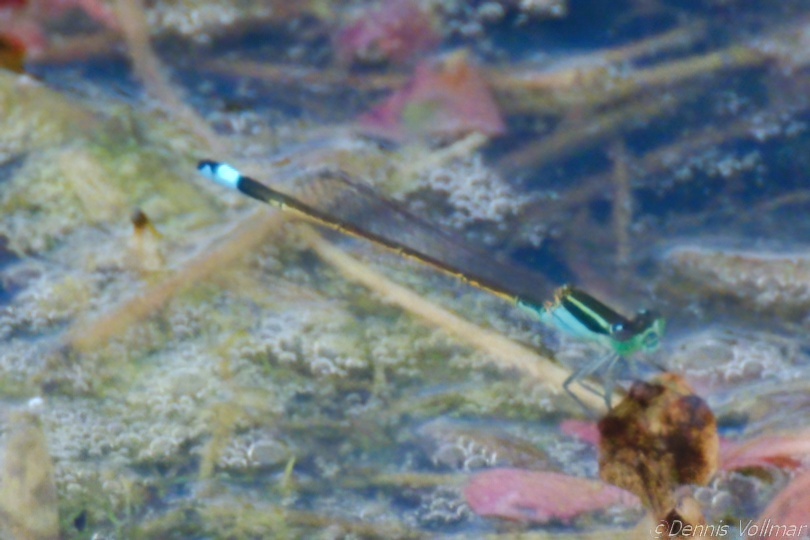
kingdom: Animalia
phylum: Arthropoda
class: Insecta
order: Odonata
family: Coenagrionidae
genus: Ischnura
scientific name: Ischnura ramburii
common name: Rambur's forktail
